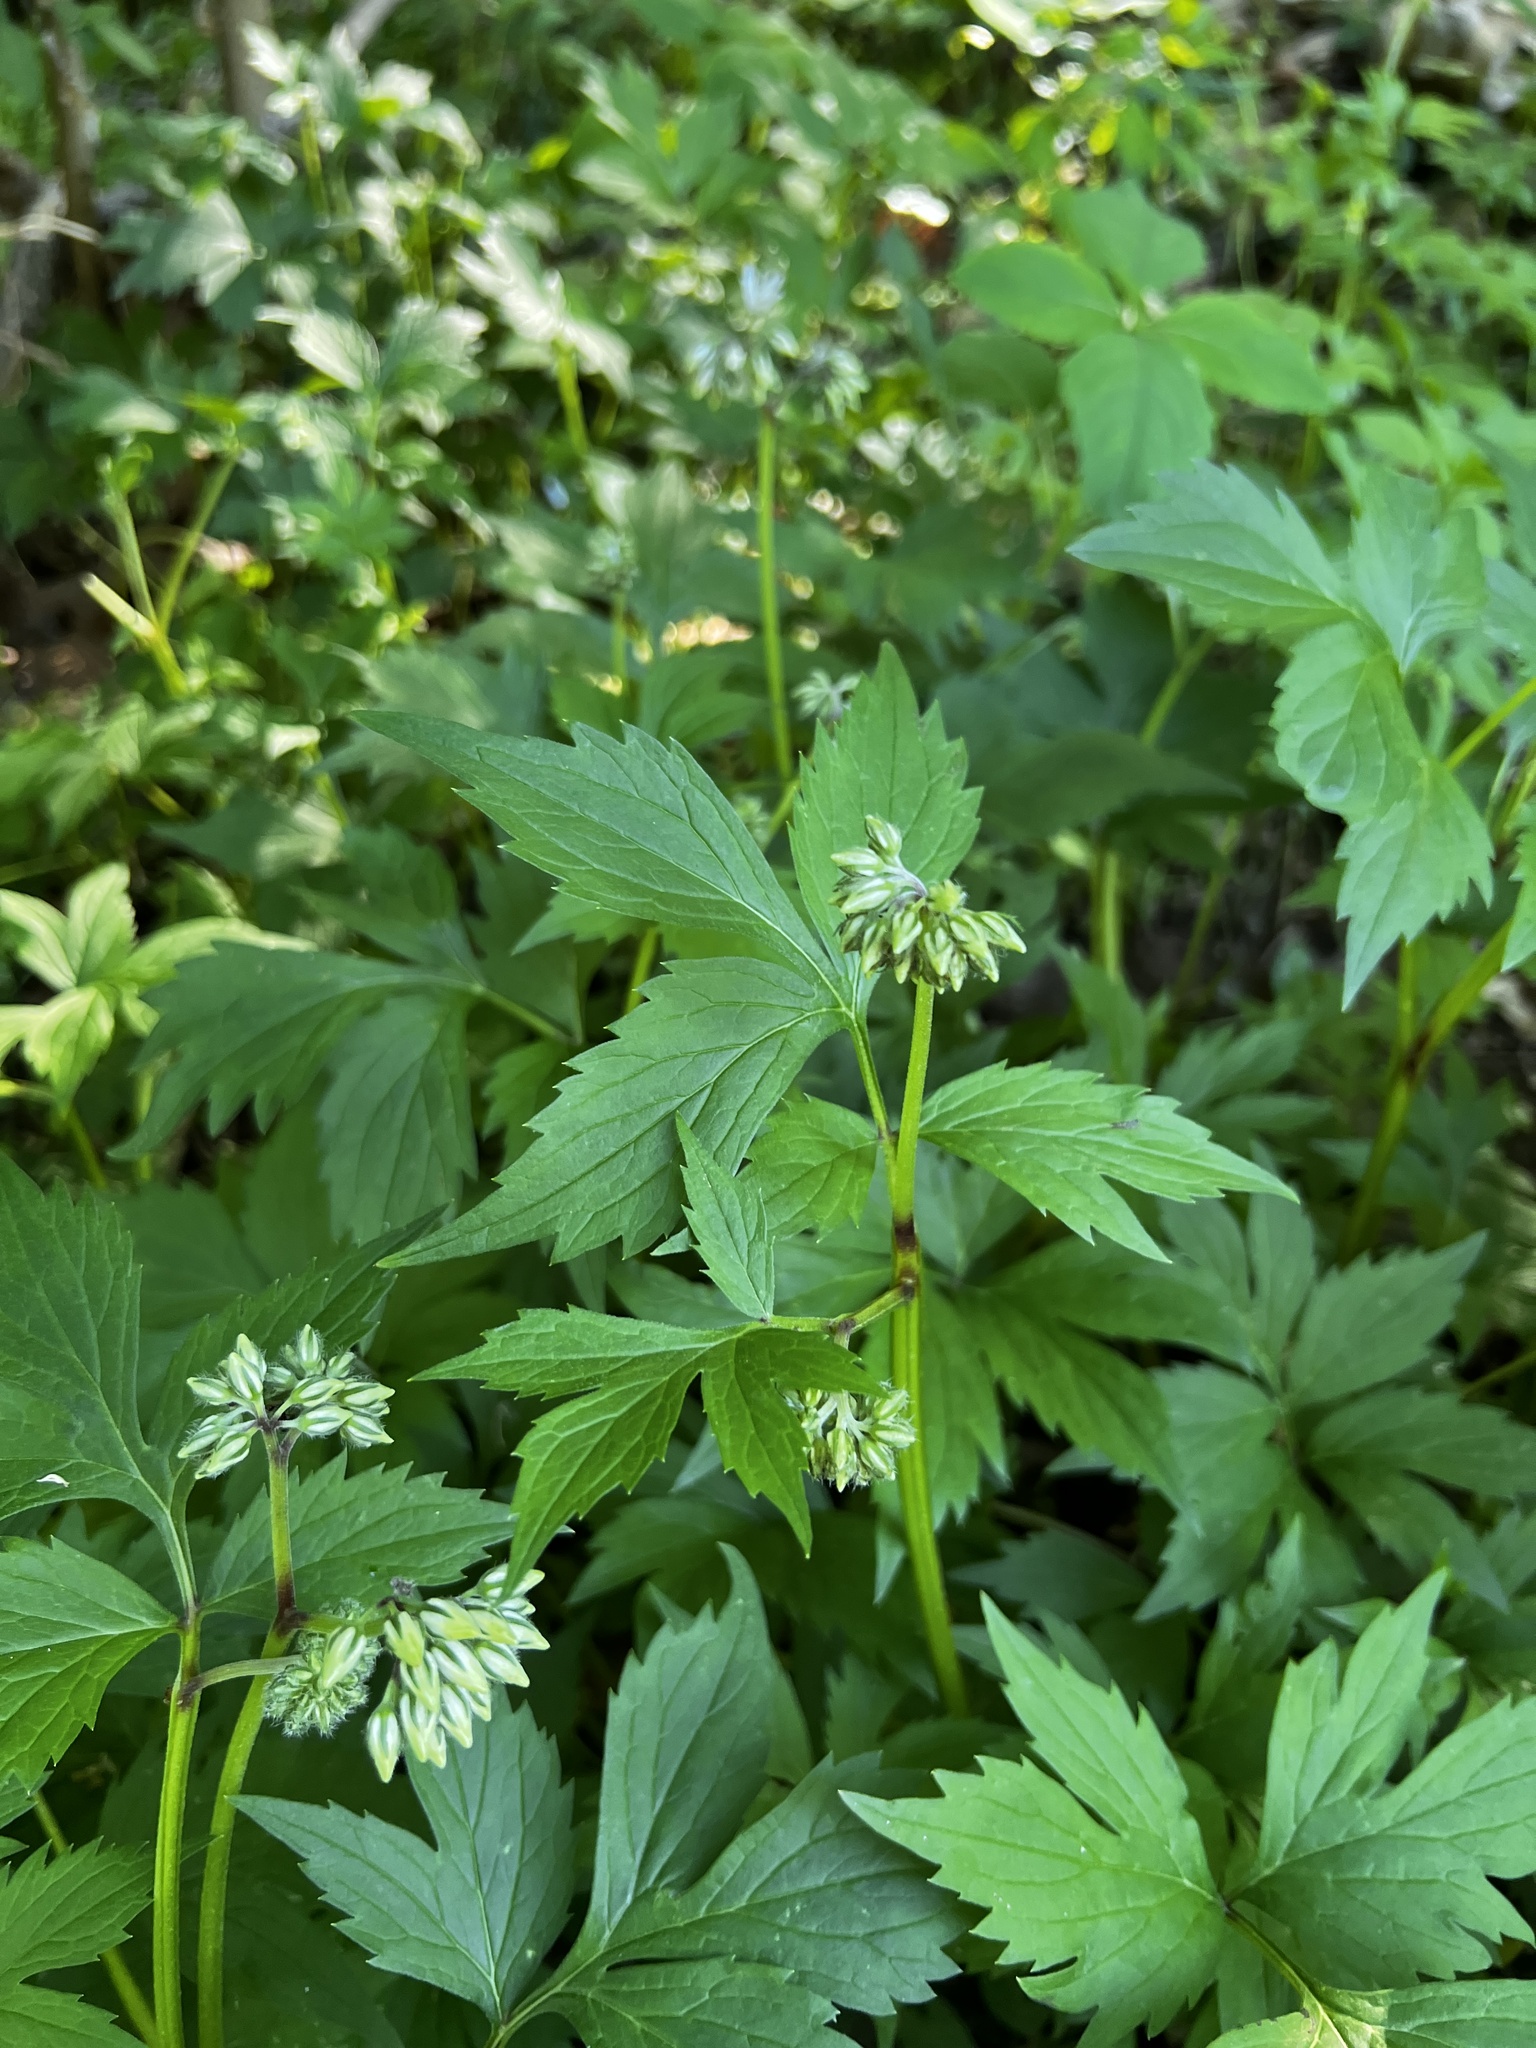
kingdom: Plantae
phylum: Tracheophyta
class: Magnoliopsida
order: Boraginales
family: Hydrophyllaceae
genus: Hydrophyllum
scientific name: Hydrophyllum virginianum
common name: Virginia waterleaf
